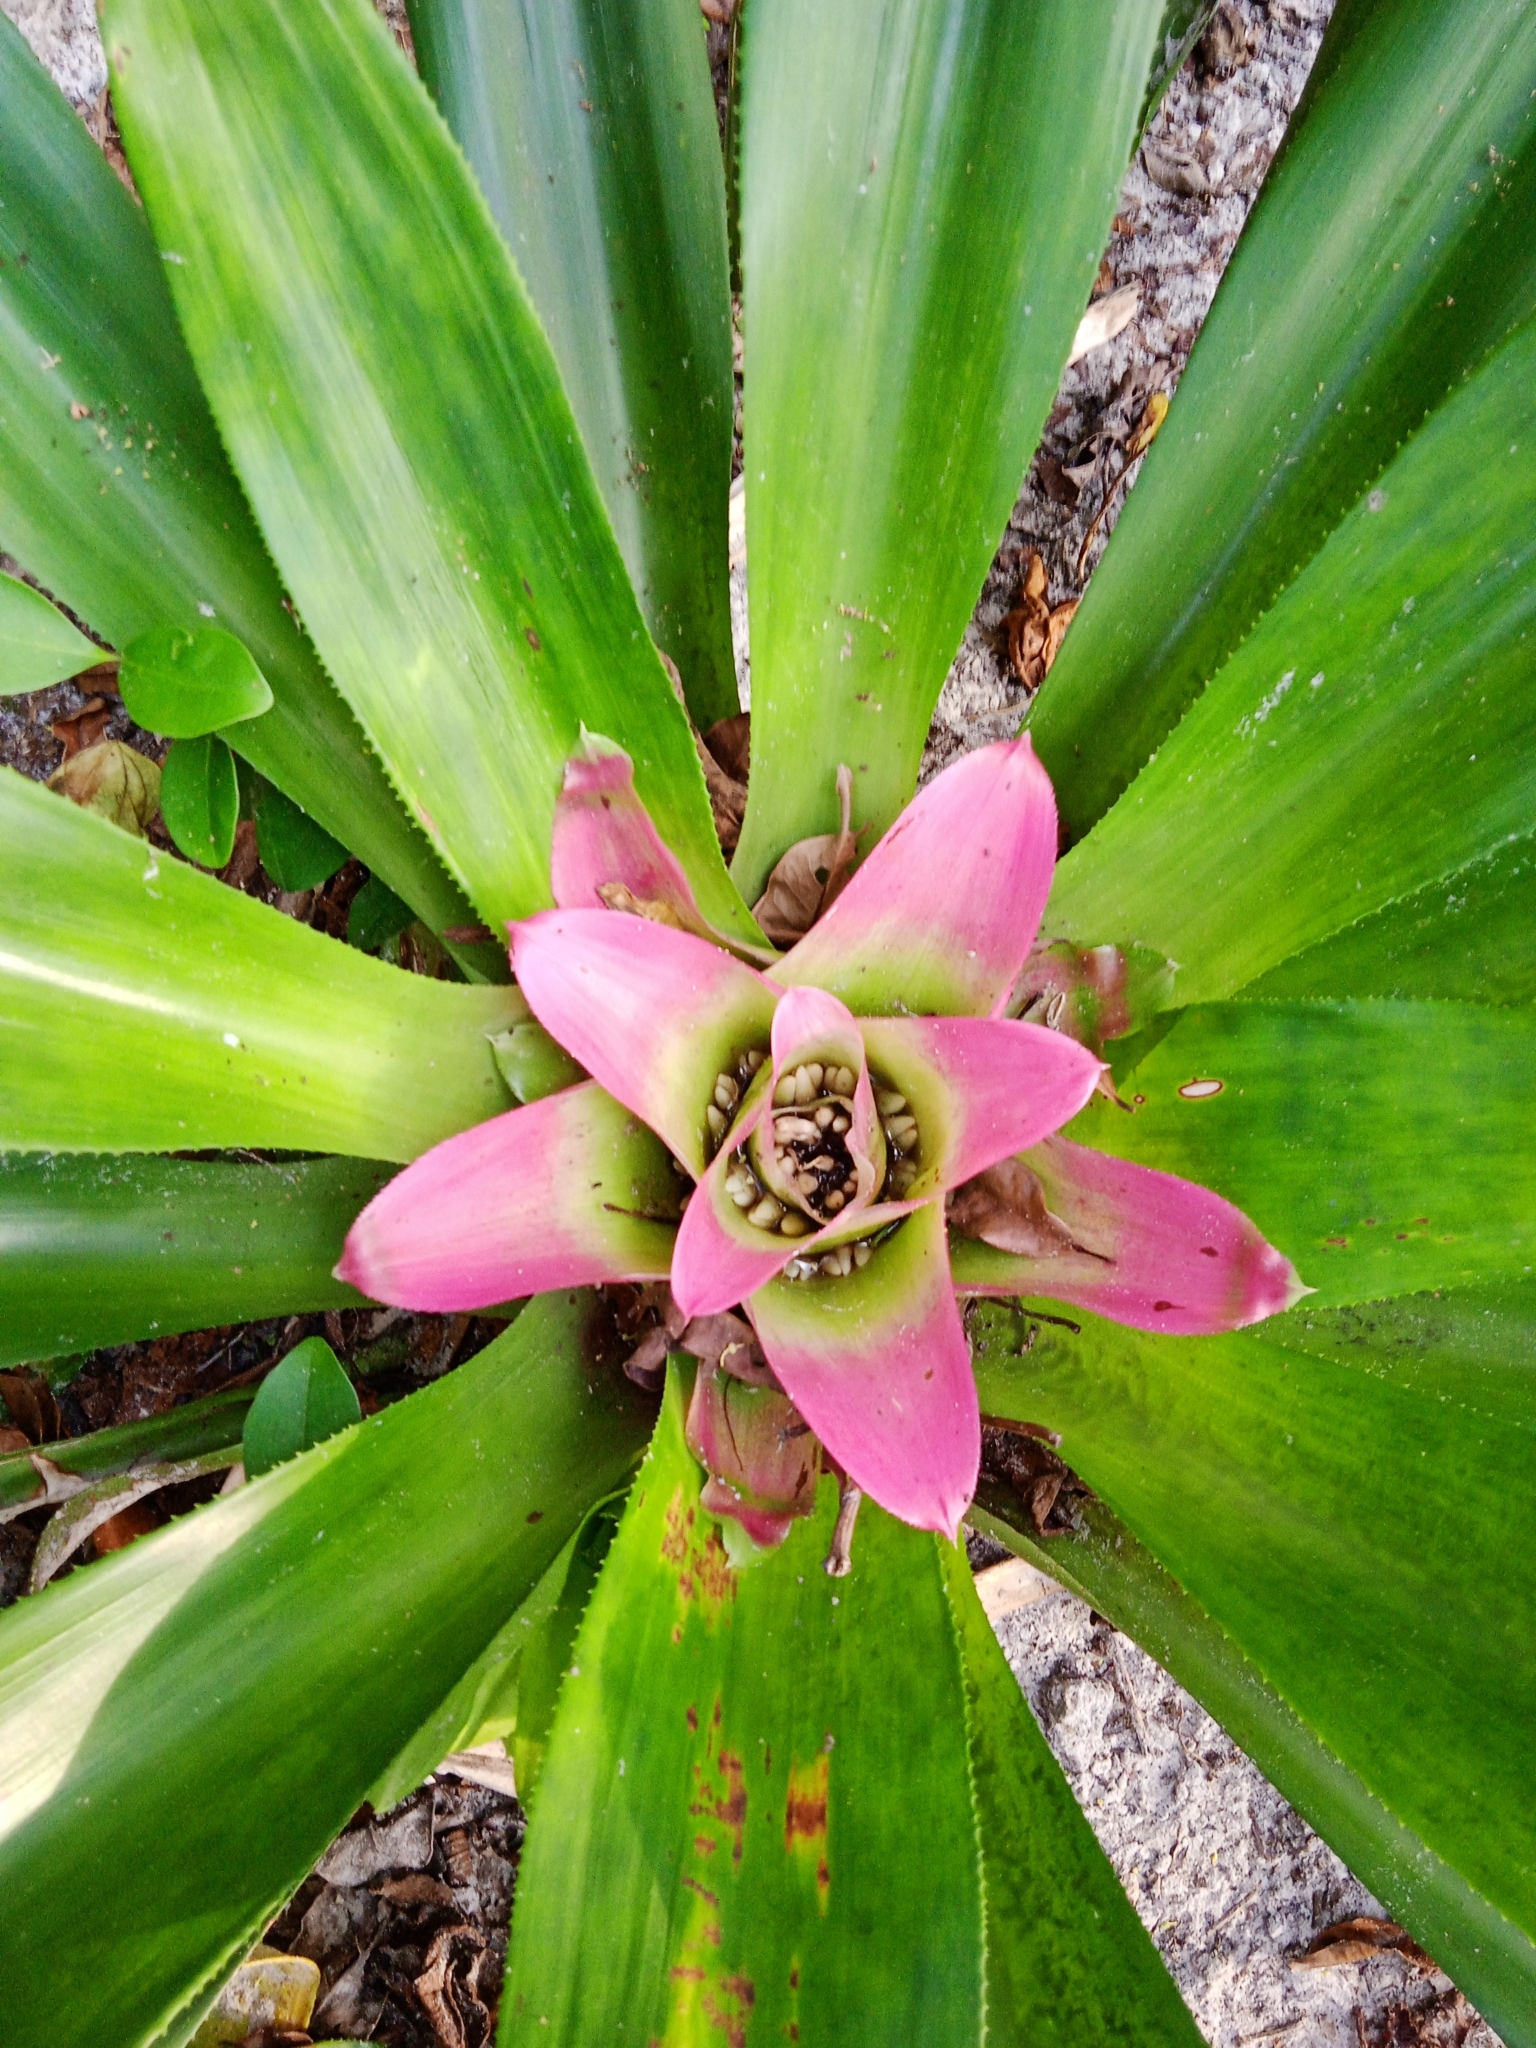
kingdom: Plantae
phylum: Tracheophyta
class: Liliopsida
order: Poales
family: Bromeliaceae
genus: Nidularium
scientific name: Nidularium innocentii
